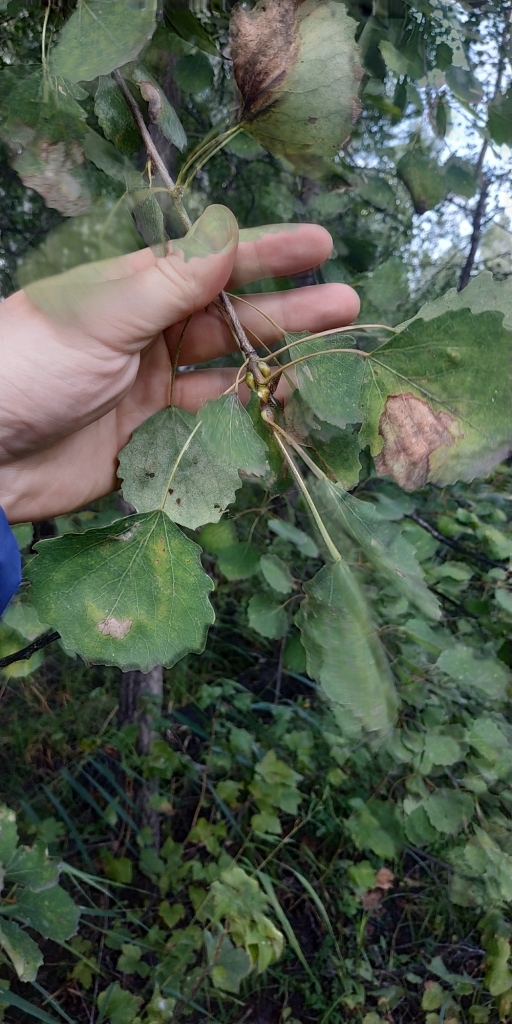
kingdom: Plantae
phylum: Tracheophyta
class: Magnoliopsida
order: Malpighiales
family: Salicaceae
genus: Populus
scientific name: Populus tremula
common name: European aspen
